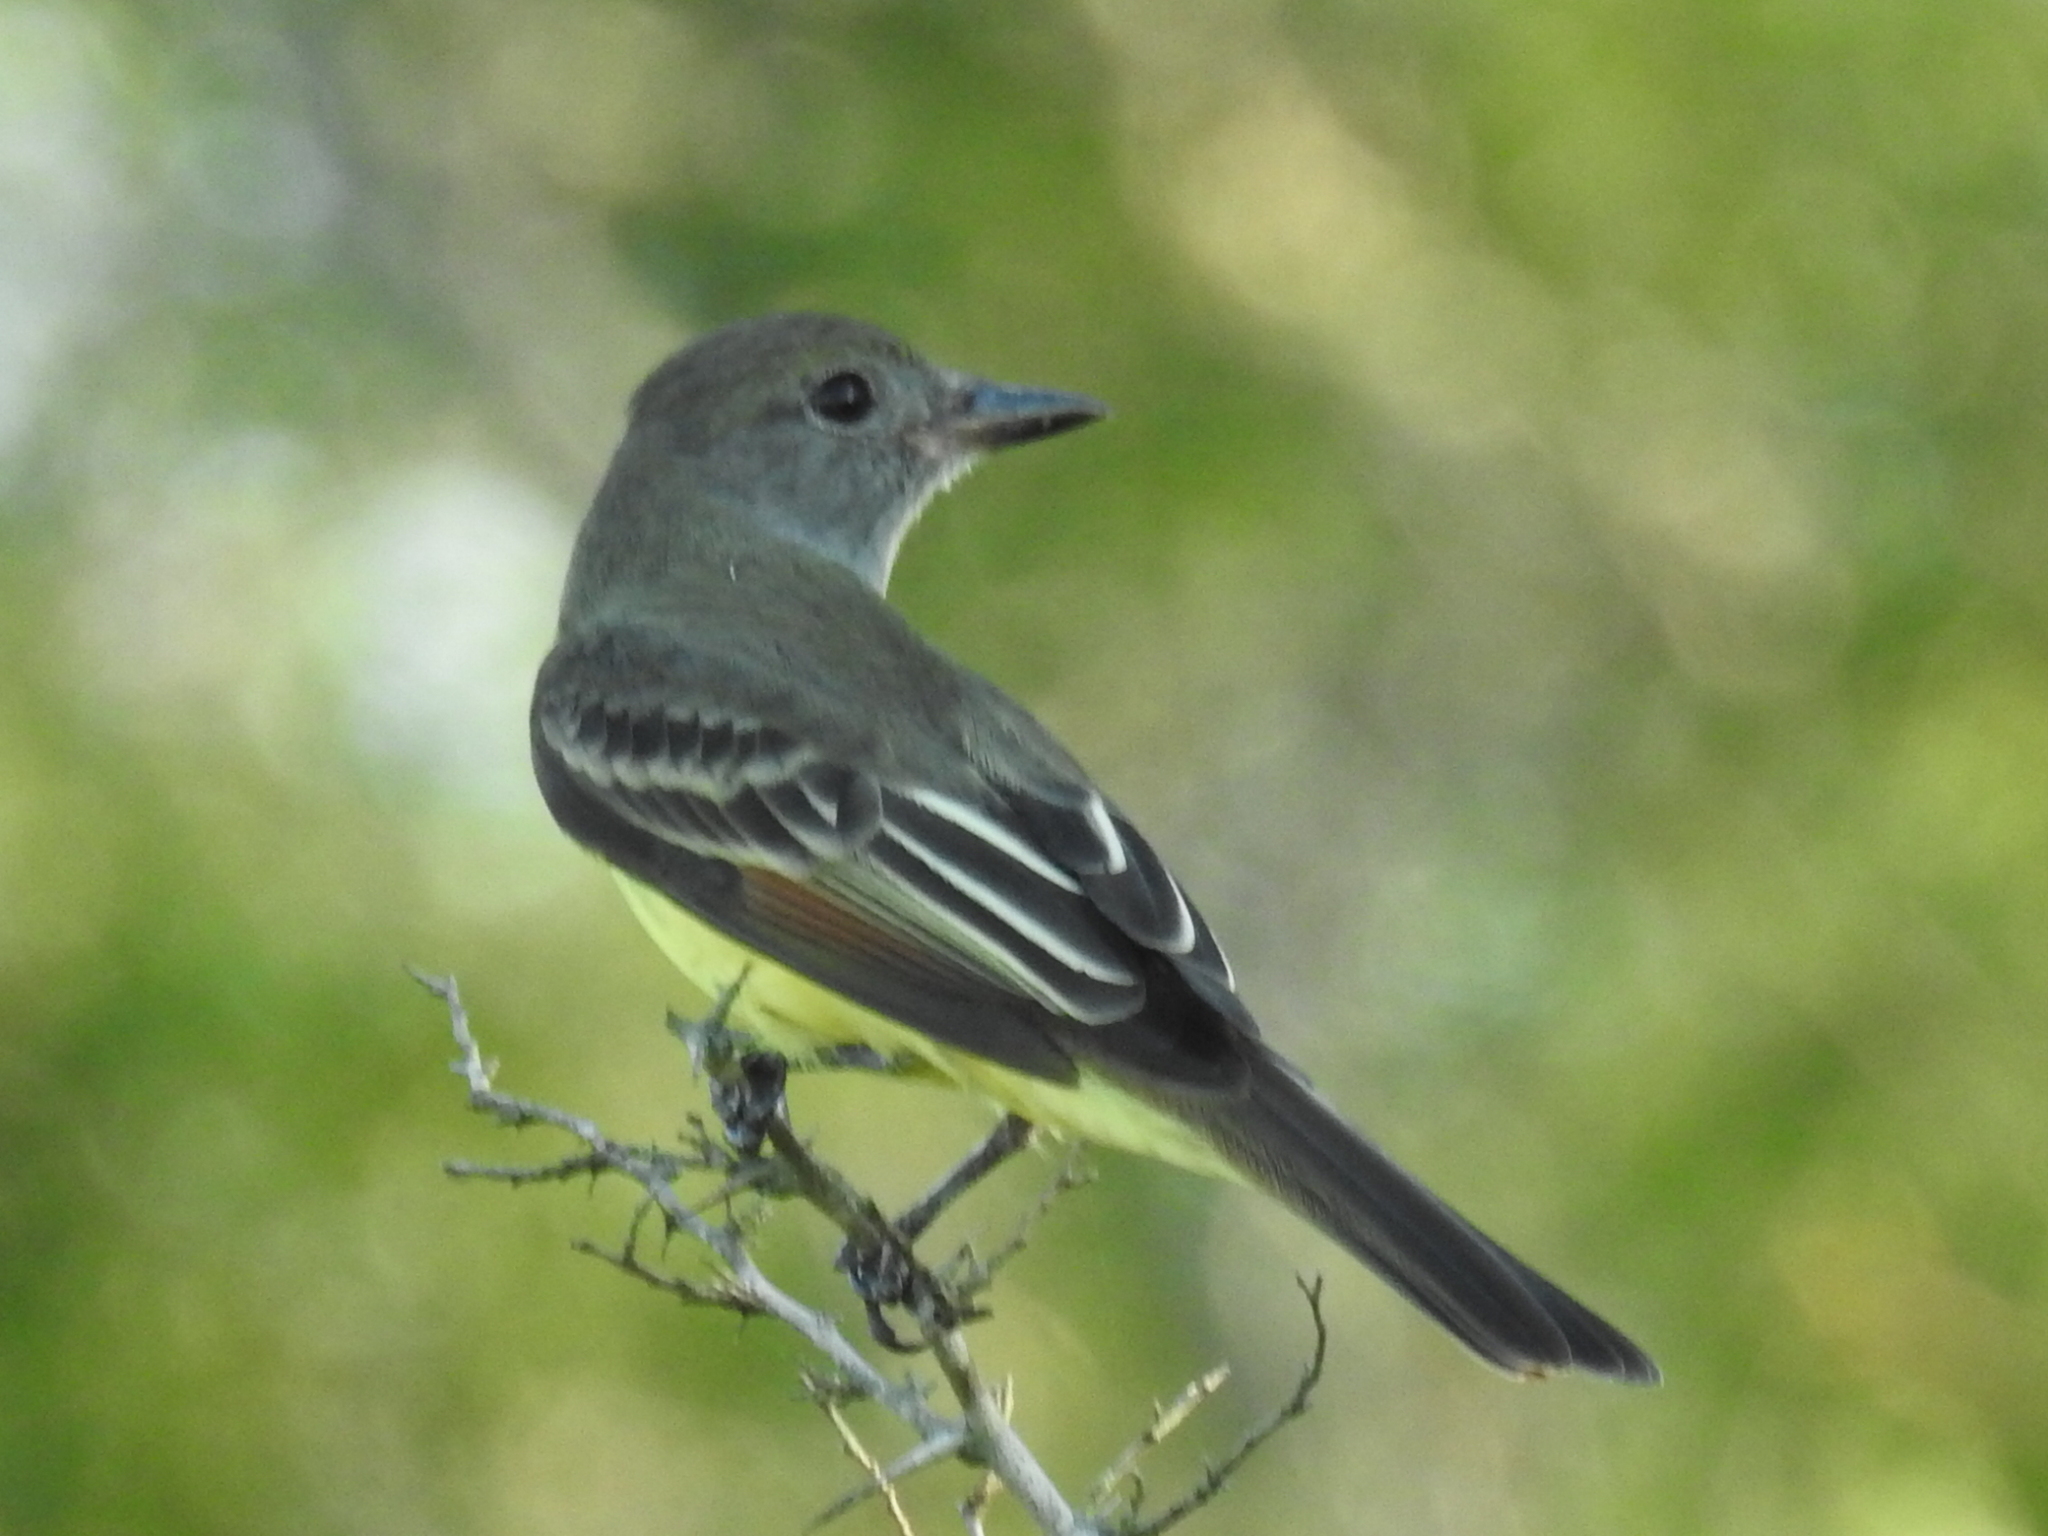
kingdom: Animalia
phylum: Chordata
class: Aves
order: Passeriformes
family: Tyrannidae
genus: Myiarchus
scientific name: Myiarchus crinitus
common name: Great crested flycatcher
